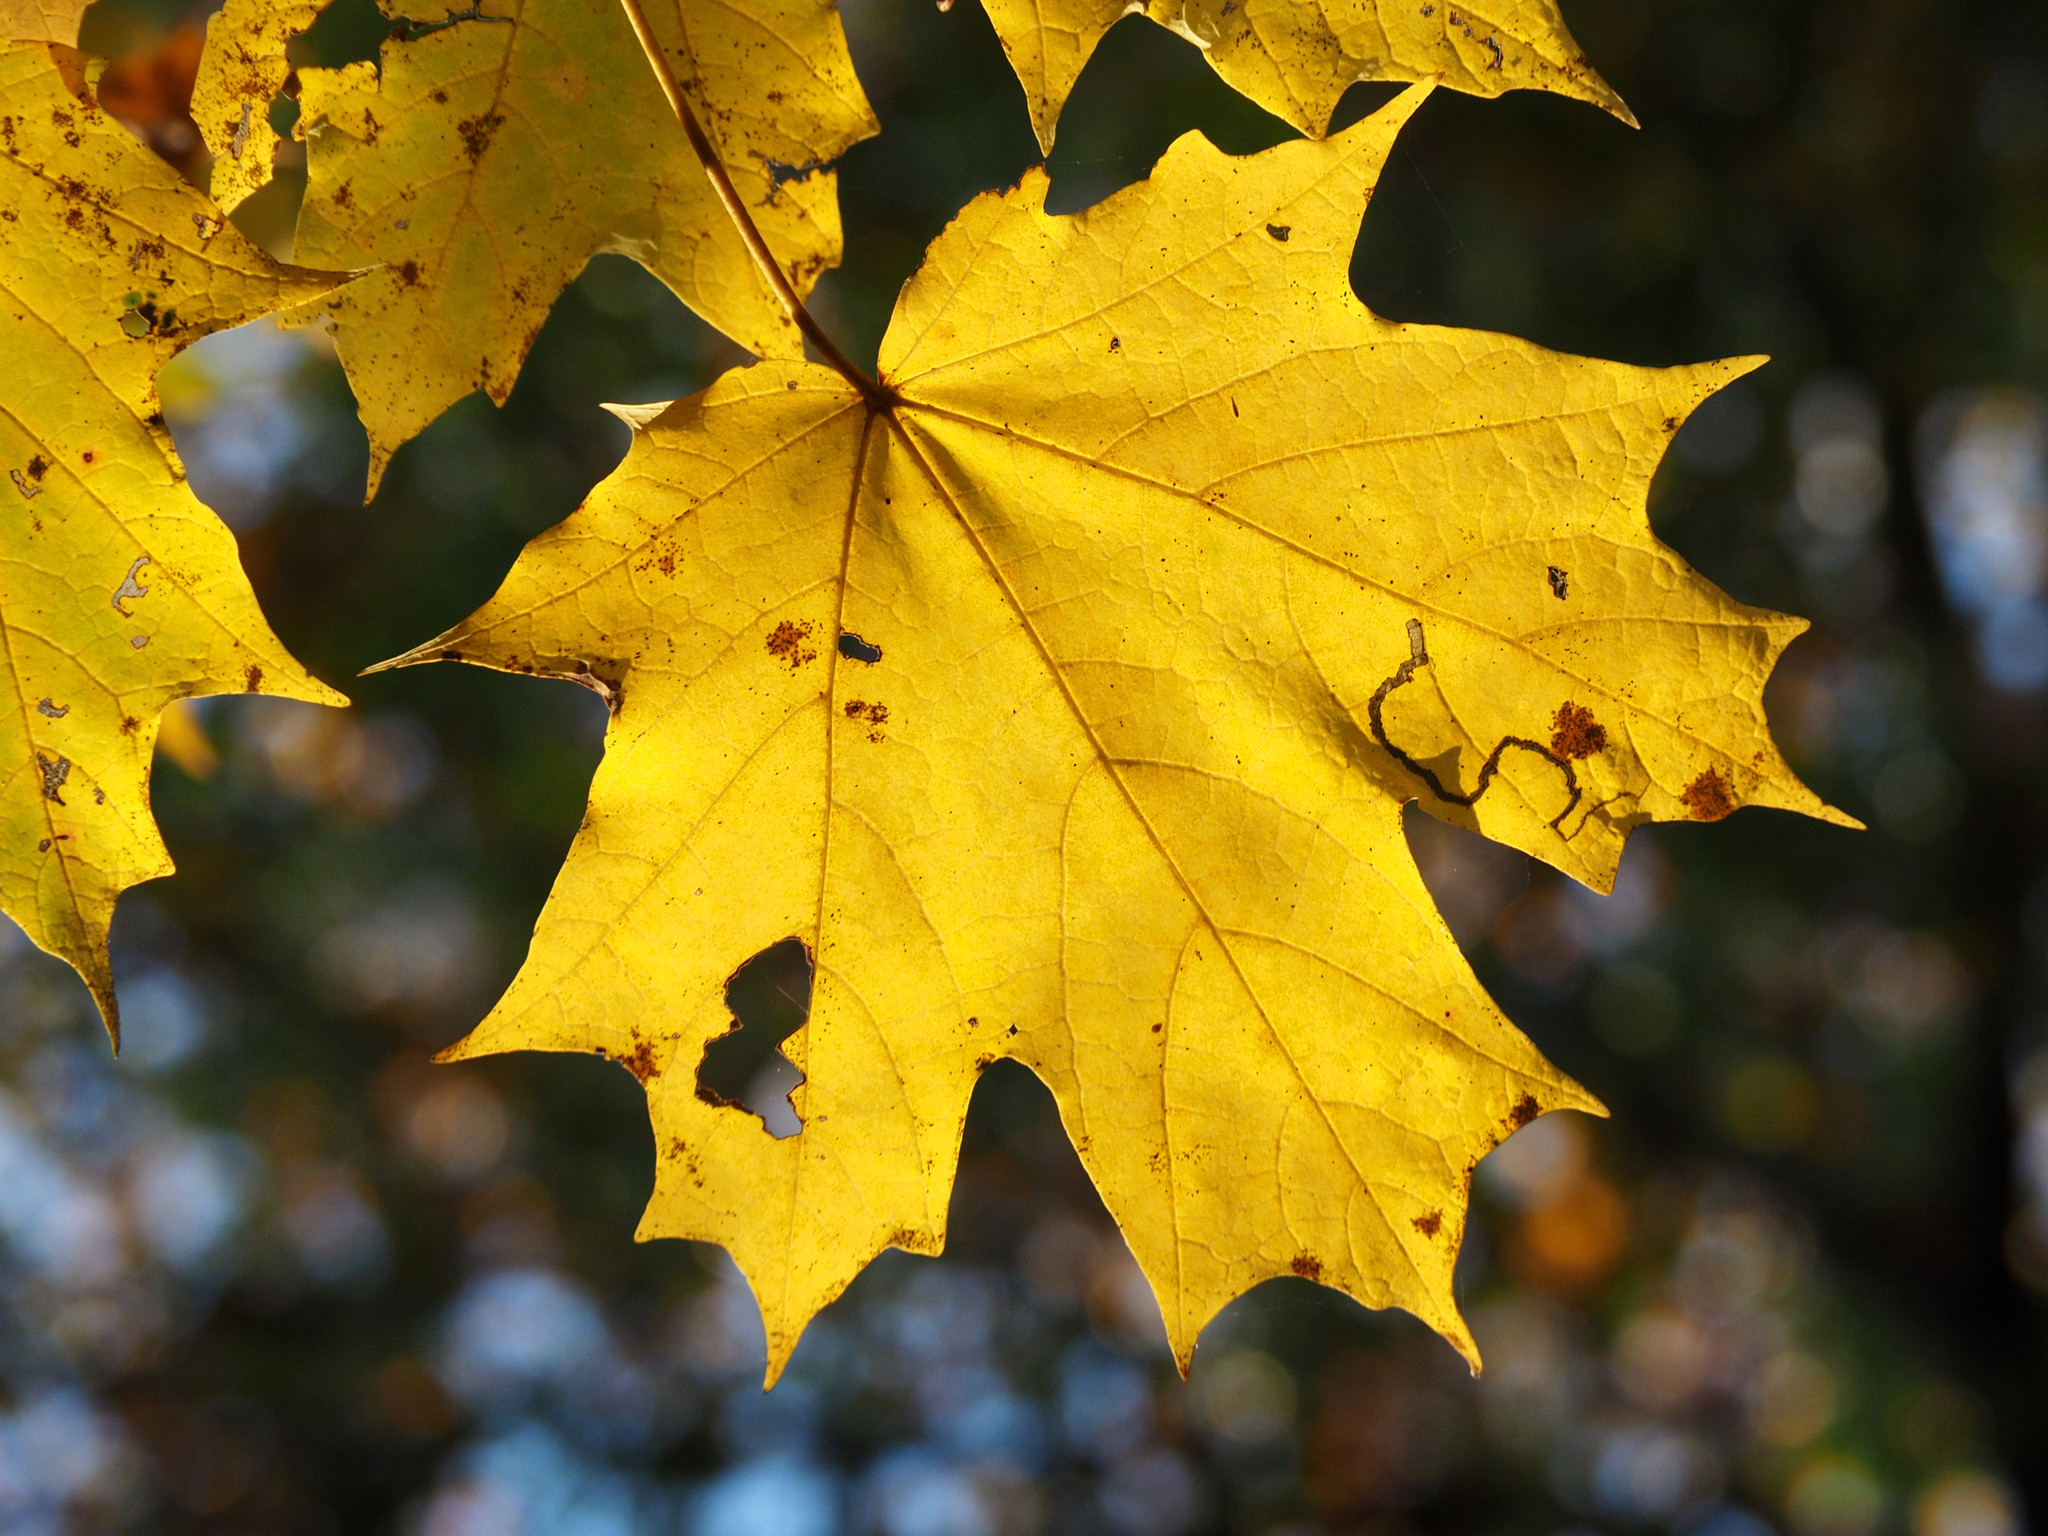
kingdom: Animalia
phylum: Arthropoda
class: Insecta
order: Lepidoptera
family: Nepticulidae
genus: Glaucolepis
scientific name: Glaucolepis saccharella
